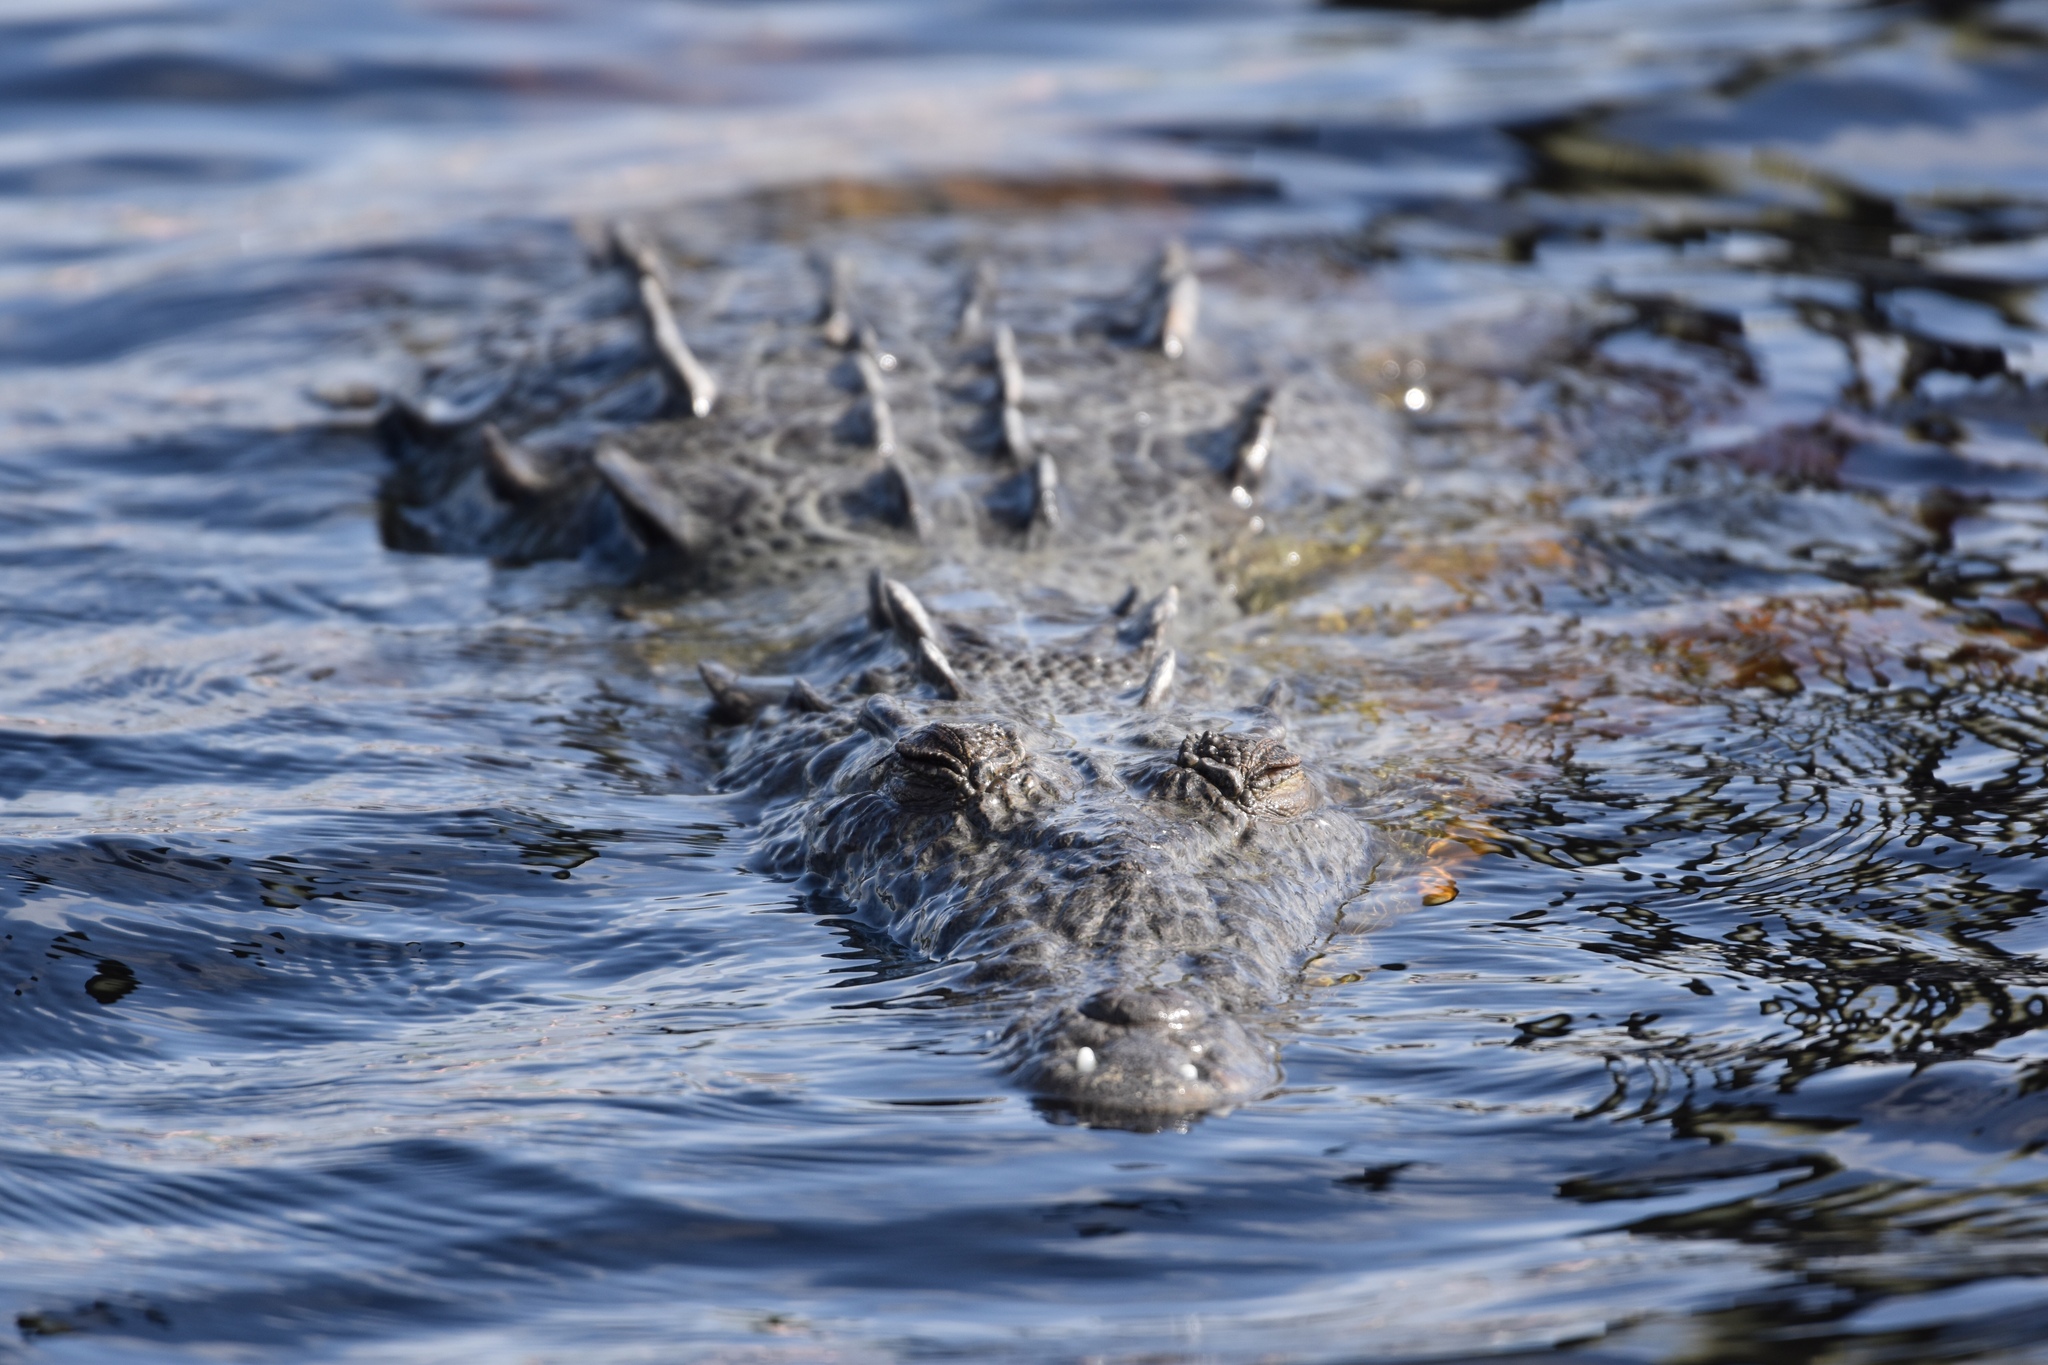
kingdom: Animalia
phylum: Chordata
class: Crocodylia
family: Crocodylidae
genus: Crocodylus
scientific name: Crocodylus acutus
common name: American crocodile
